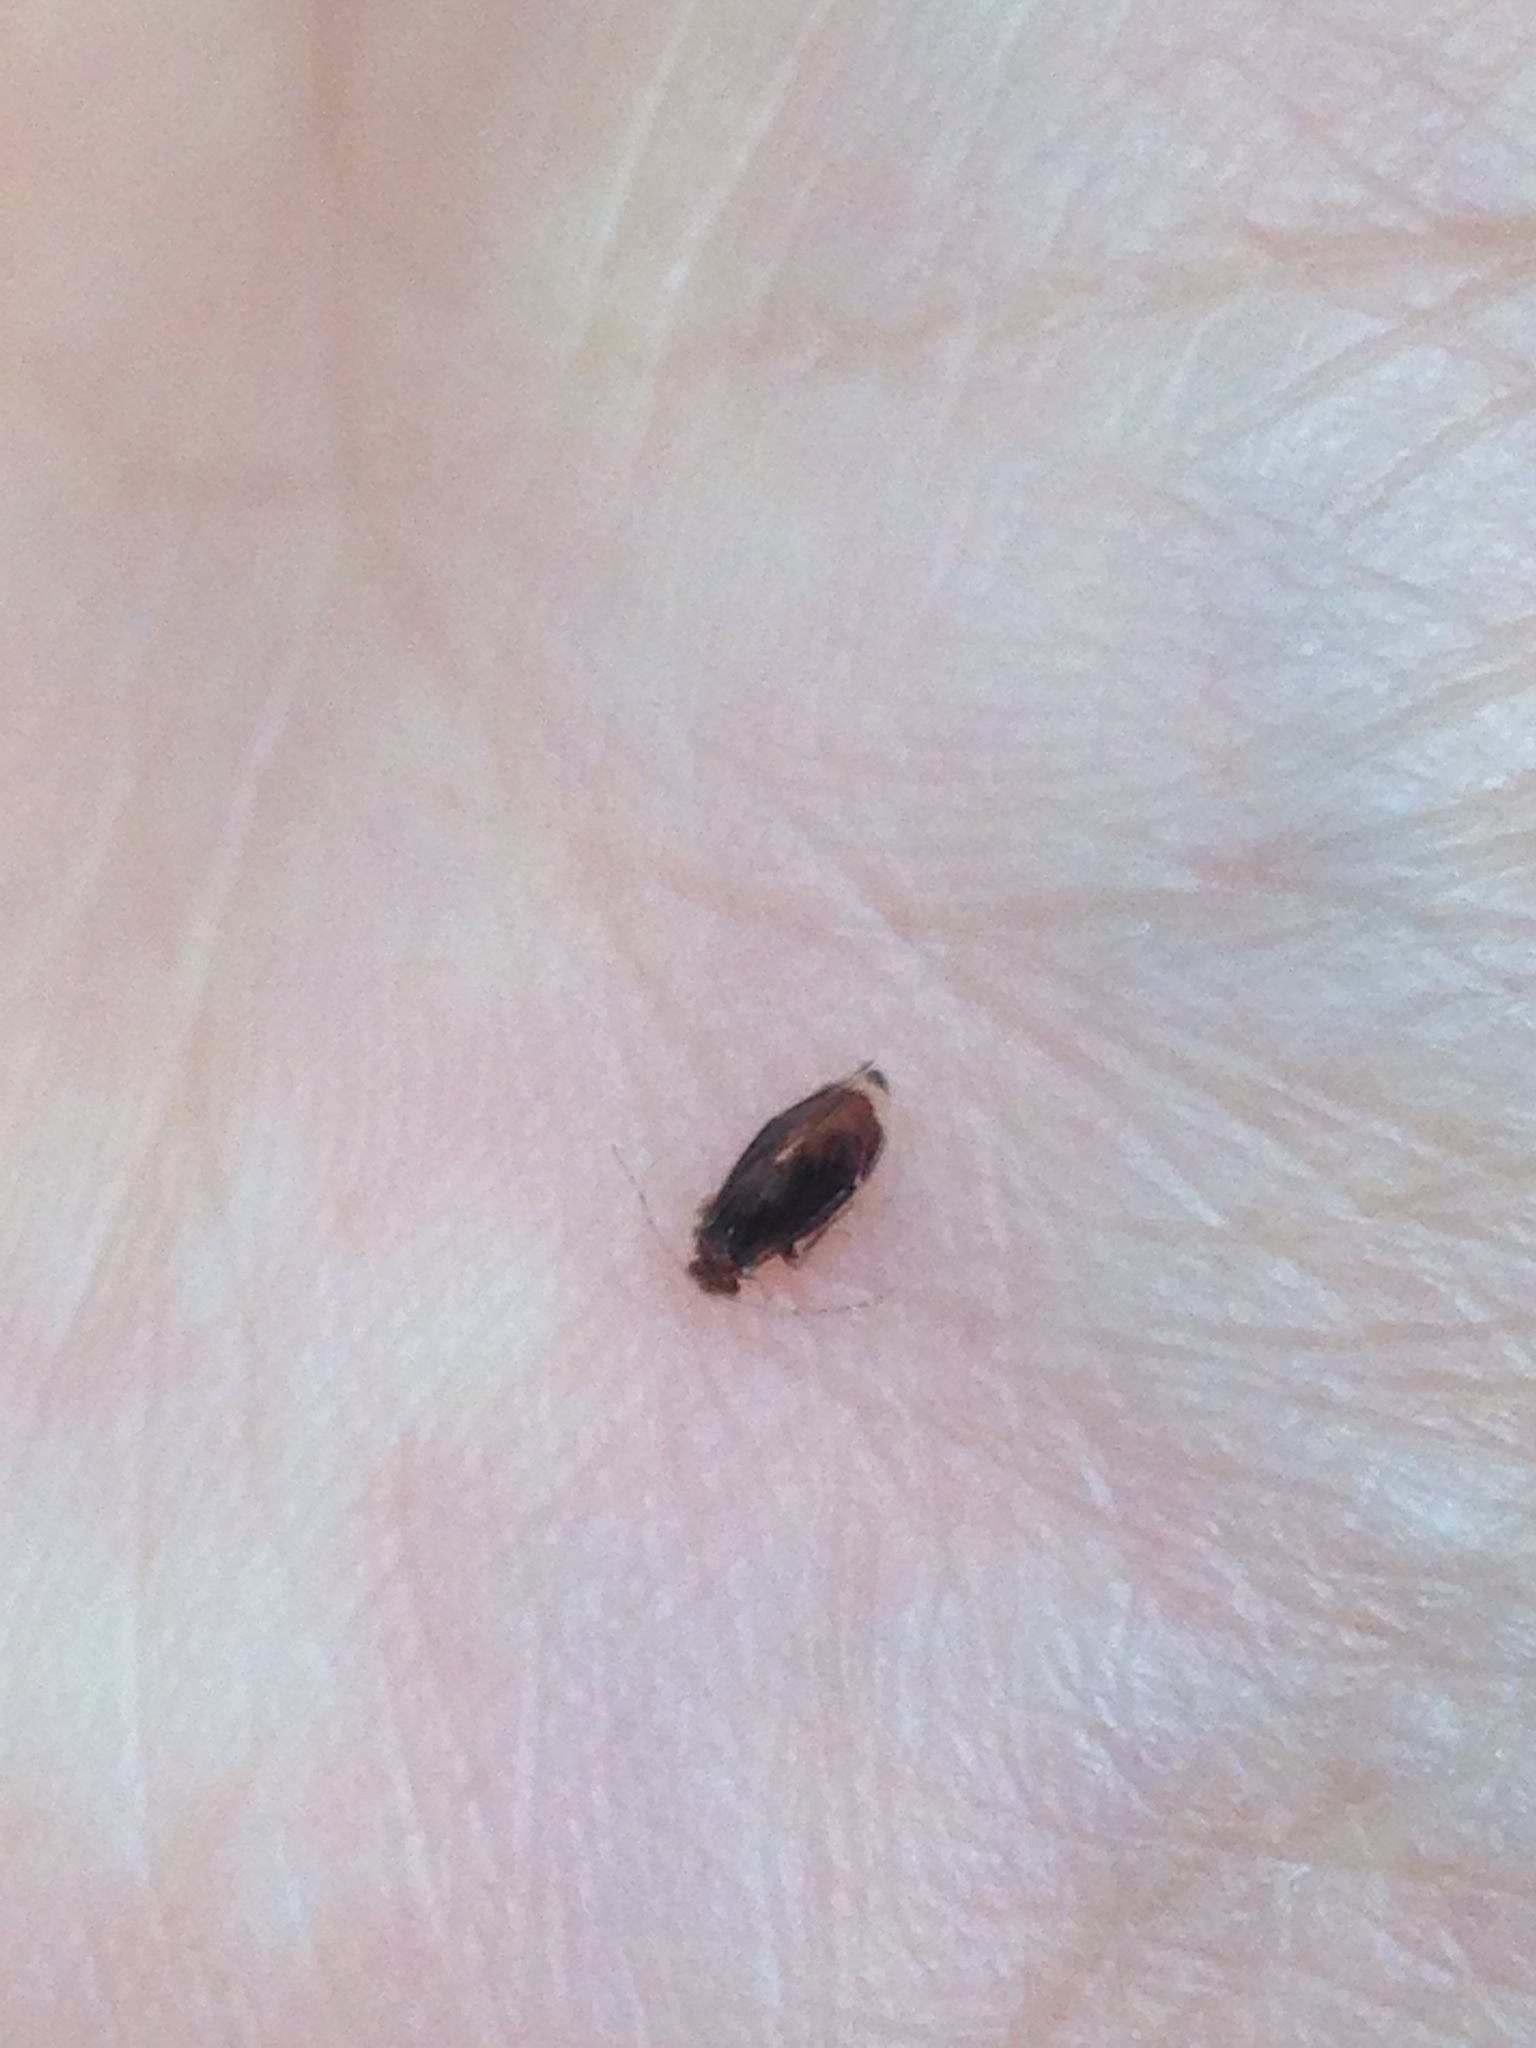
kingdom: Animalia
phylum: Arthropoda
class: Insecta
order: Psocodea
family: Amphipsocidae
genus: Polypsocus
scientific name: Polypsocus corruptus
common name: Corrupt barklouse
